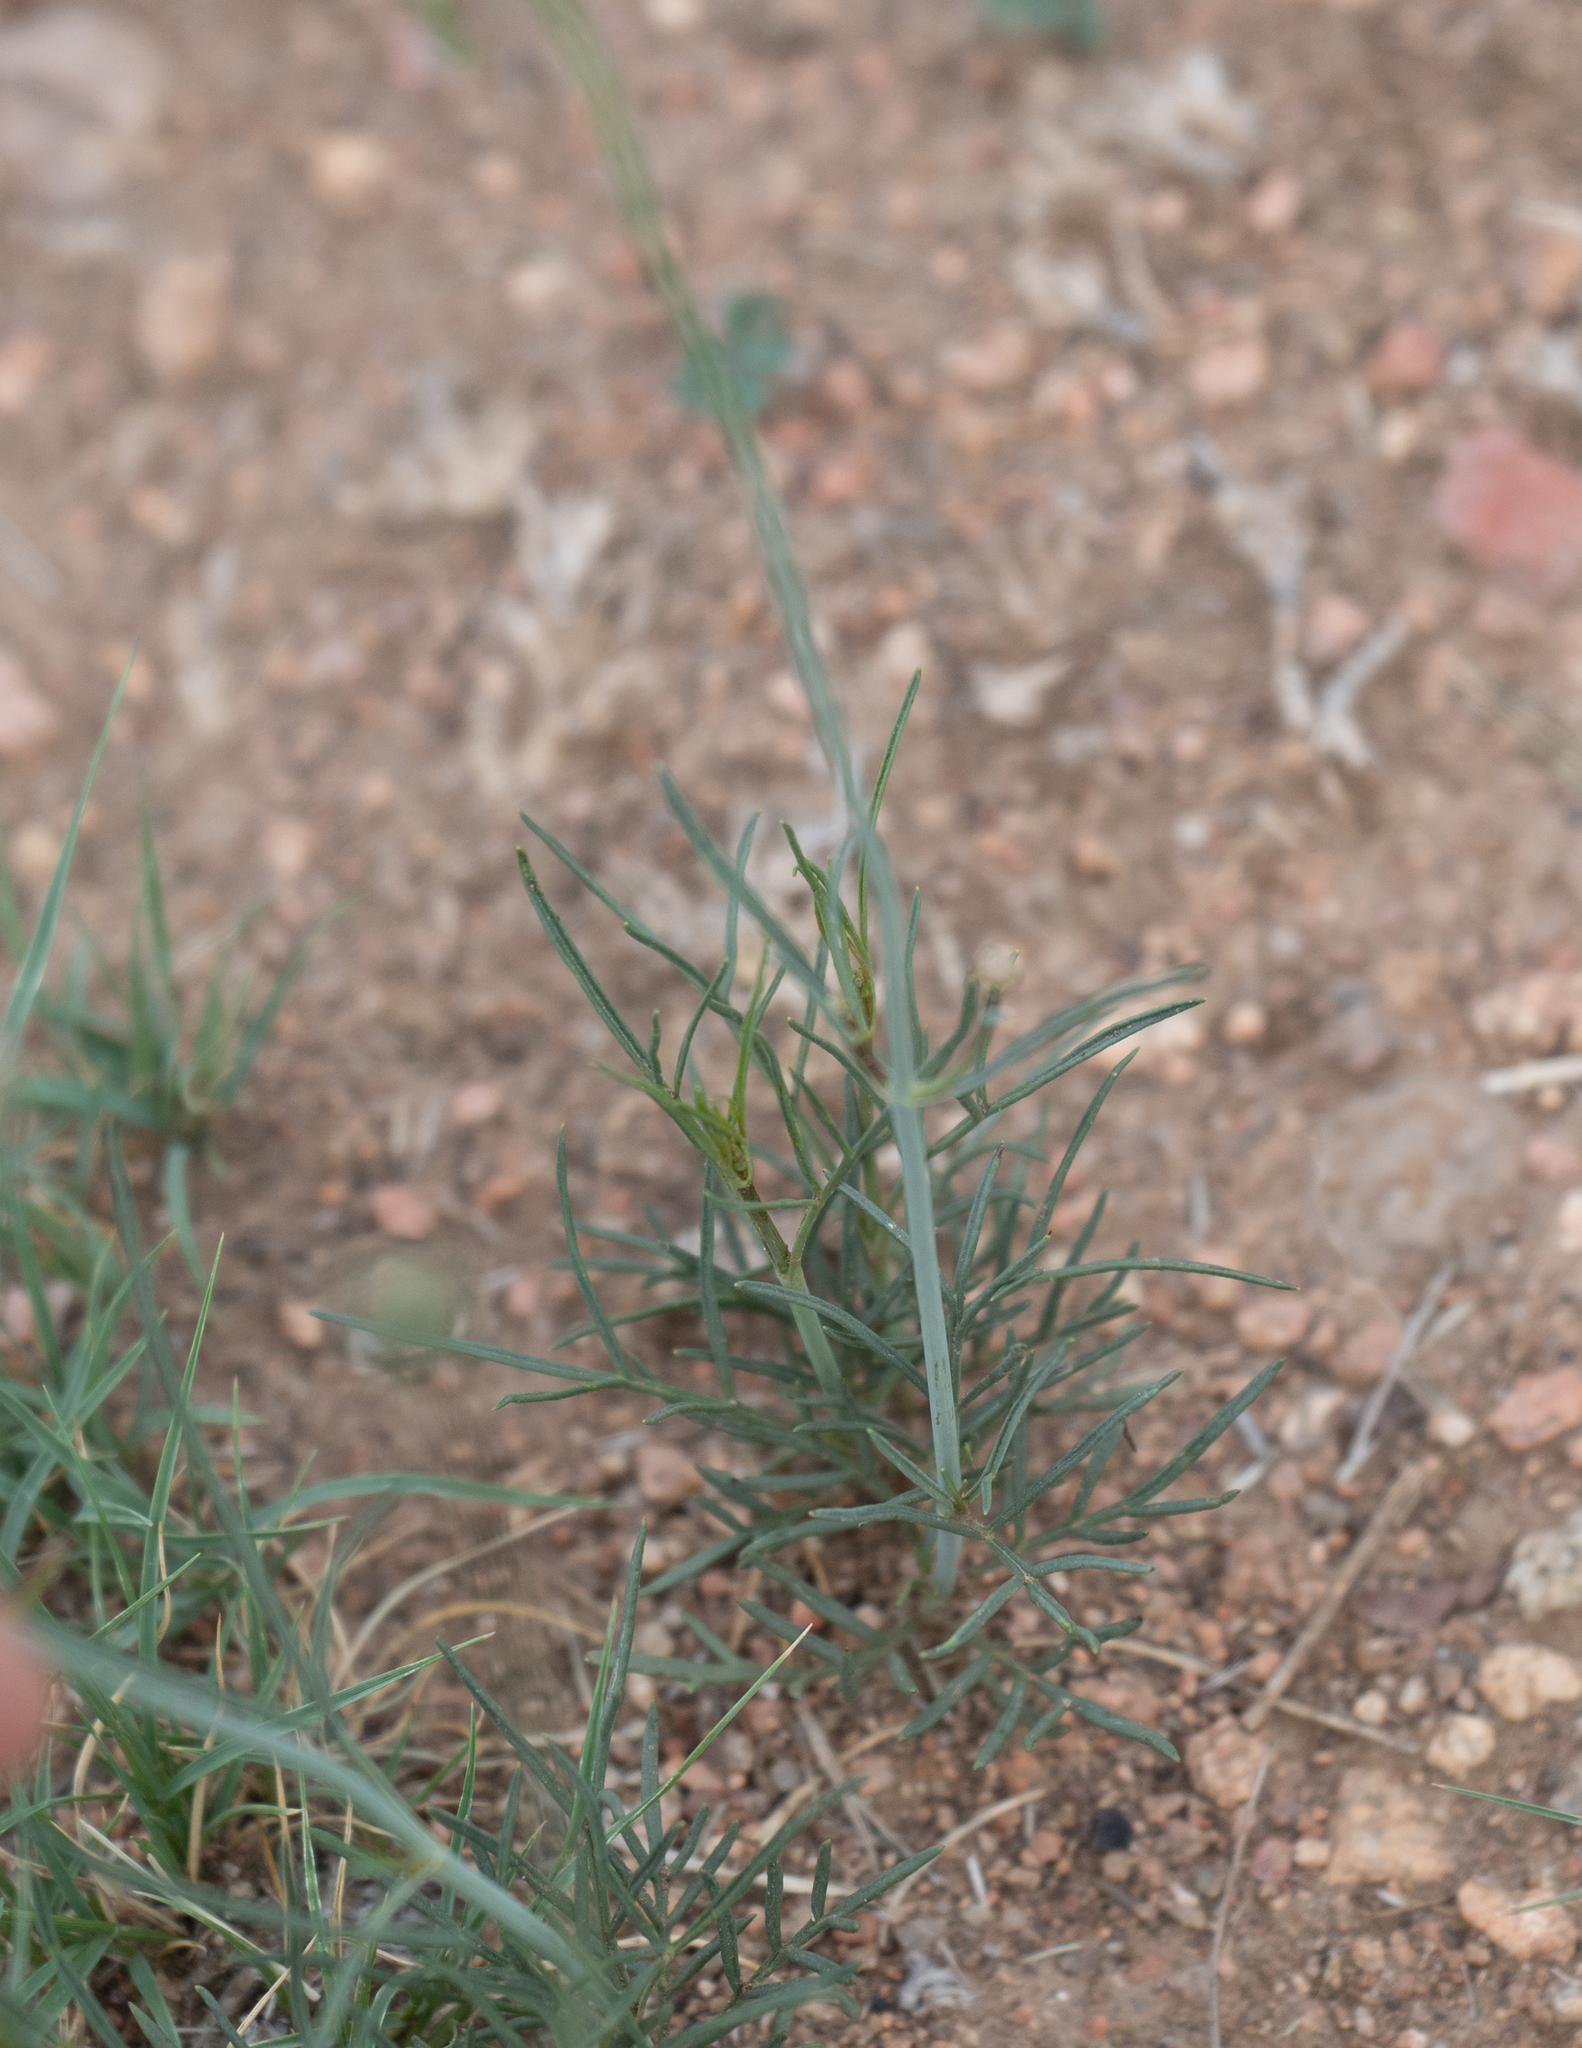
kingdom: Plantae
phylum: Tracheophyta
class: Magnoliopsida
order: Asterales
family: Asteraceae
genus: Thelesperma
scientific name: Thelesperma megapotamicum
